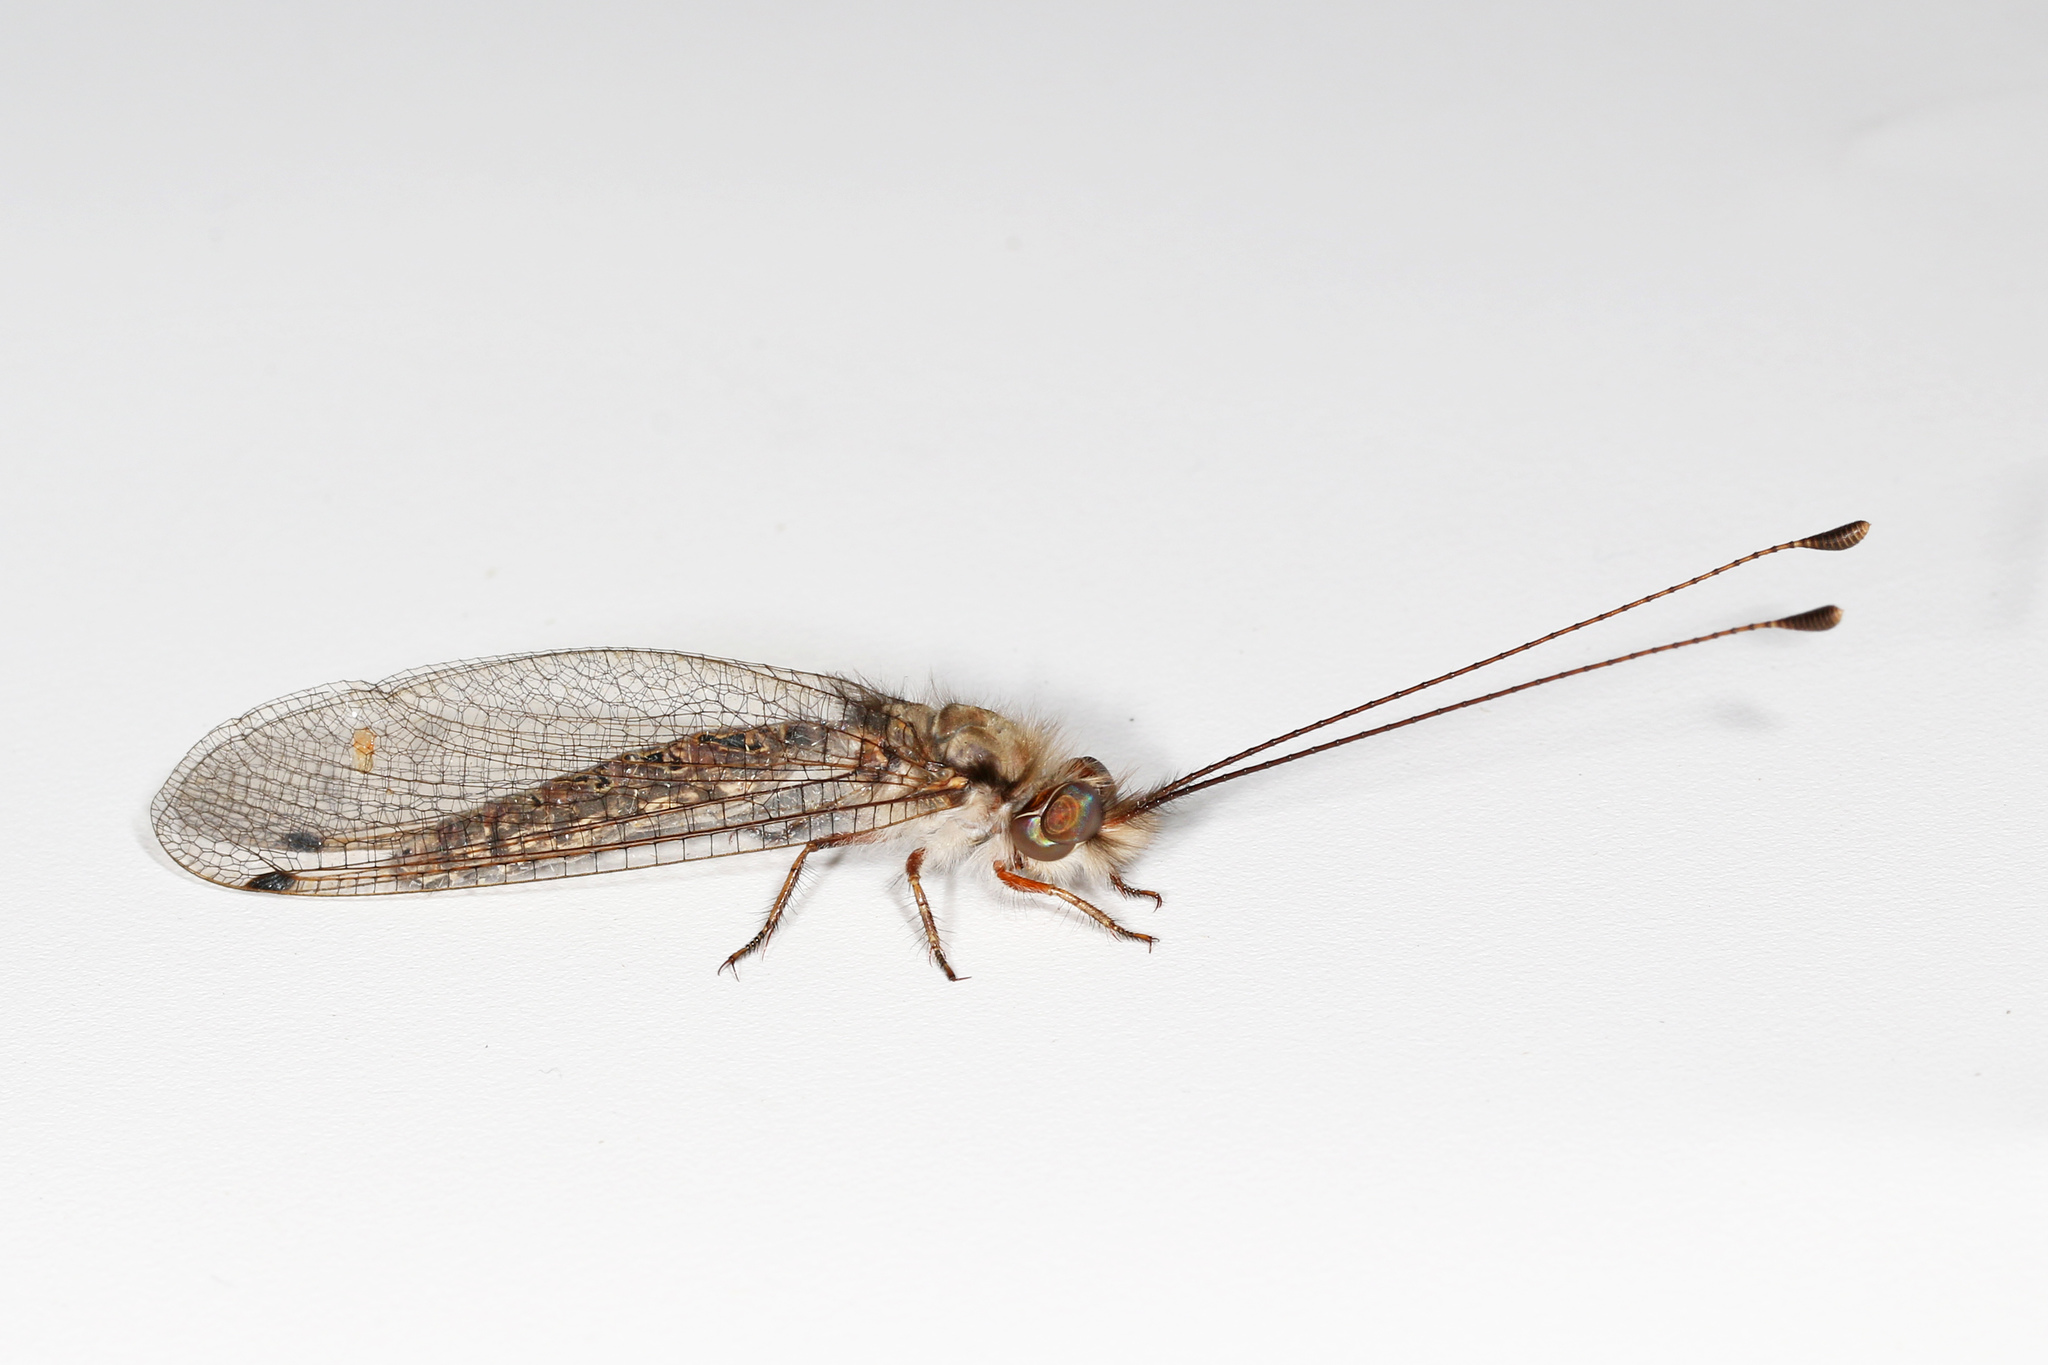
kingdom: Animalia
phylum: Arthropoda
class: Insecta
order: Neuroptera
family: Ascalaphidae
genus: Ululodes
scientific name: Ululodes macleayanus
